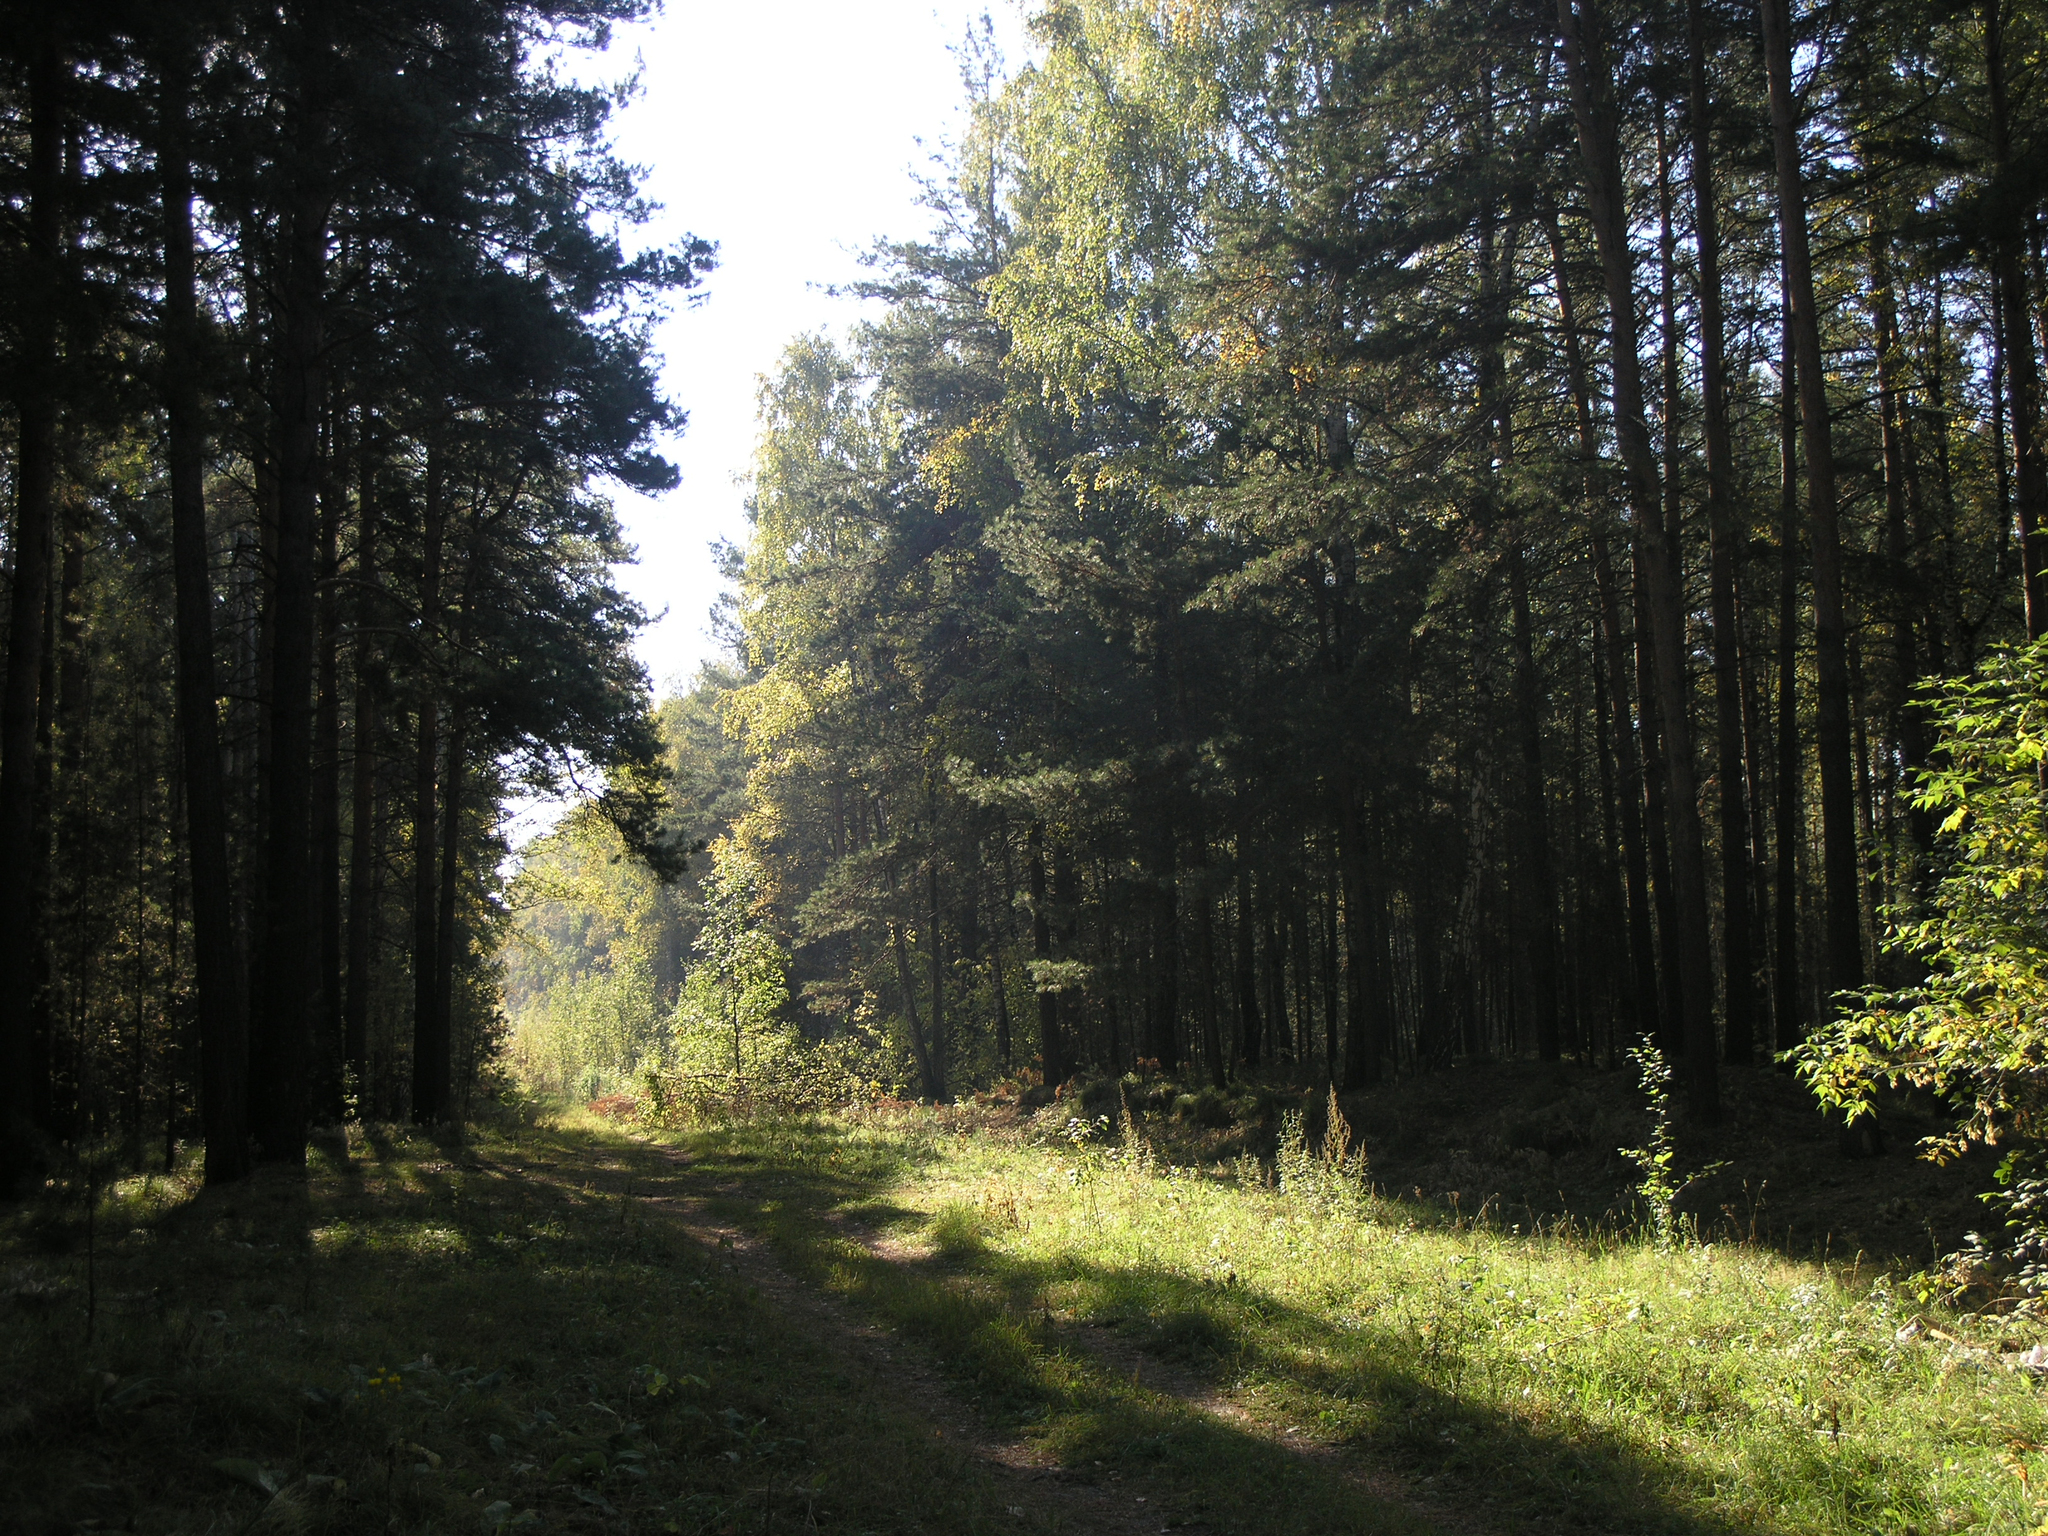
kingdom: Plantae
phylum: Tracheophyta
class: Pinopsida
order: Pinales
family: Pinaceae
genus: Pinus
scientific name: Pinus sylvestris
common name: Scots pine
